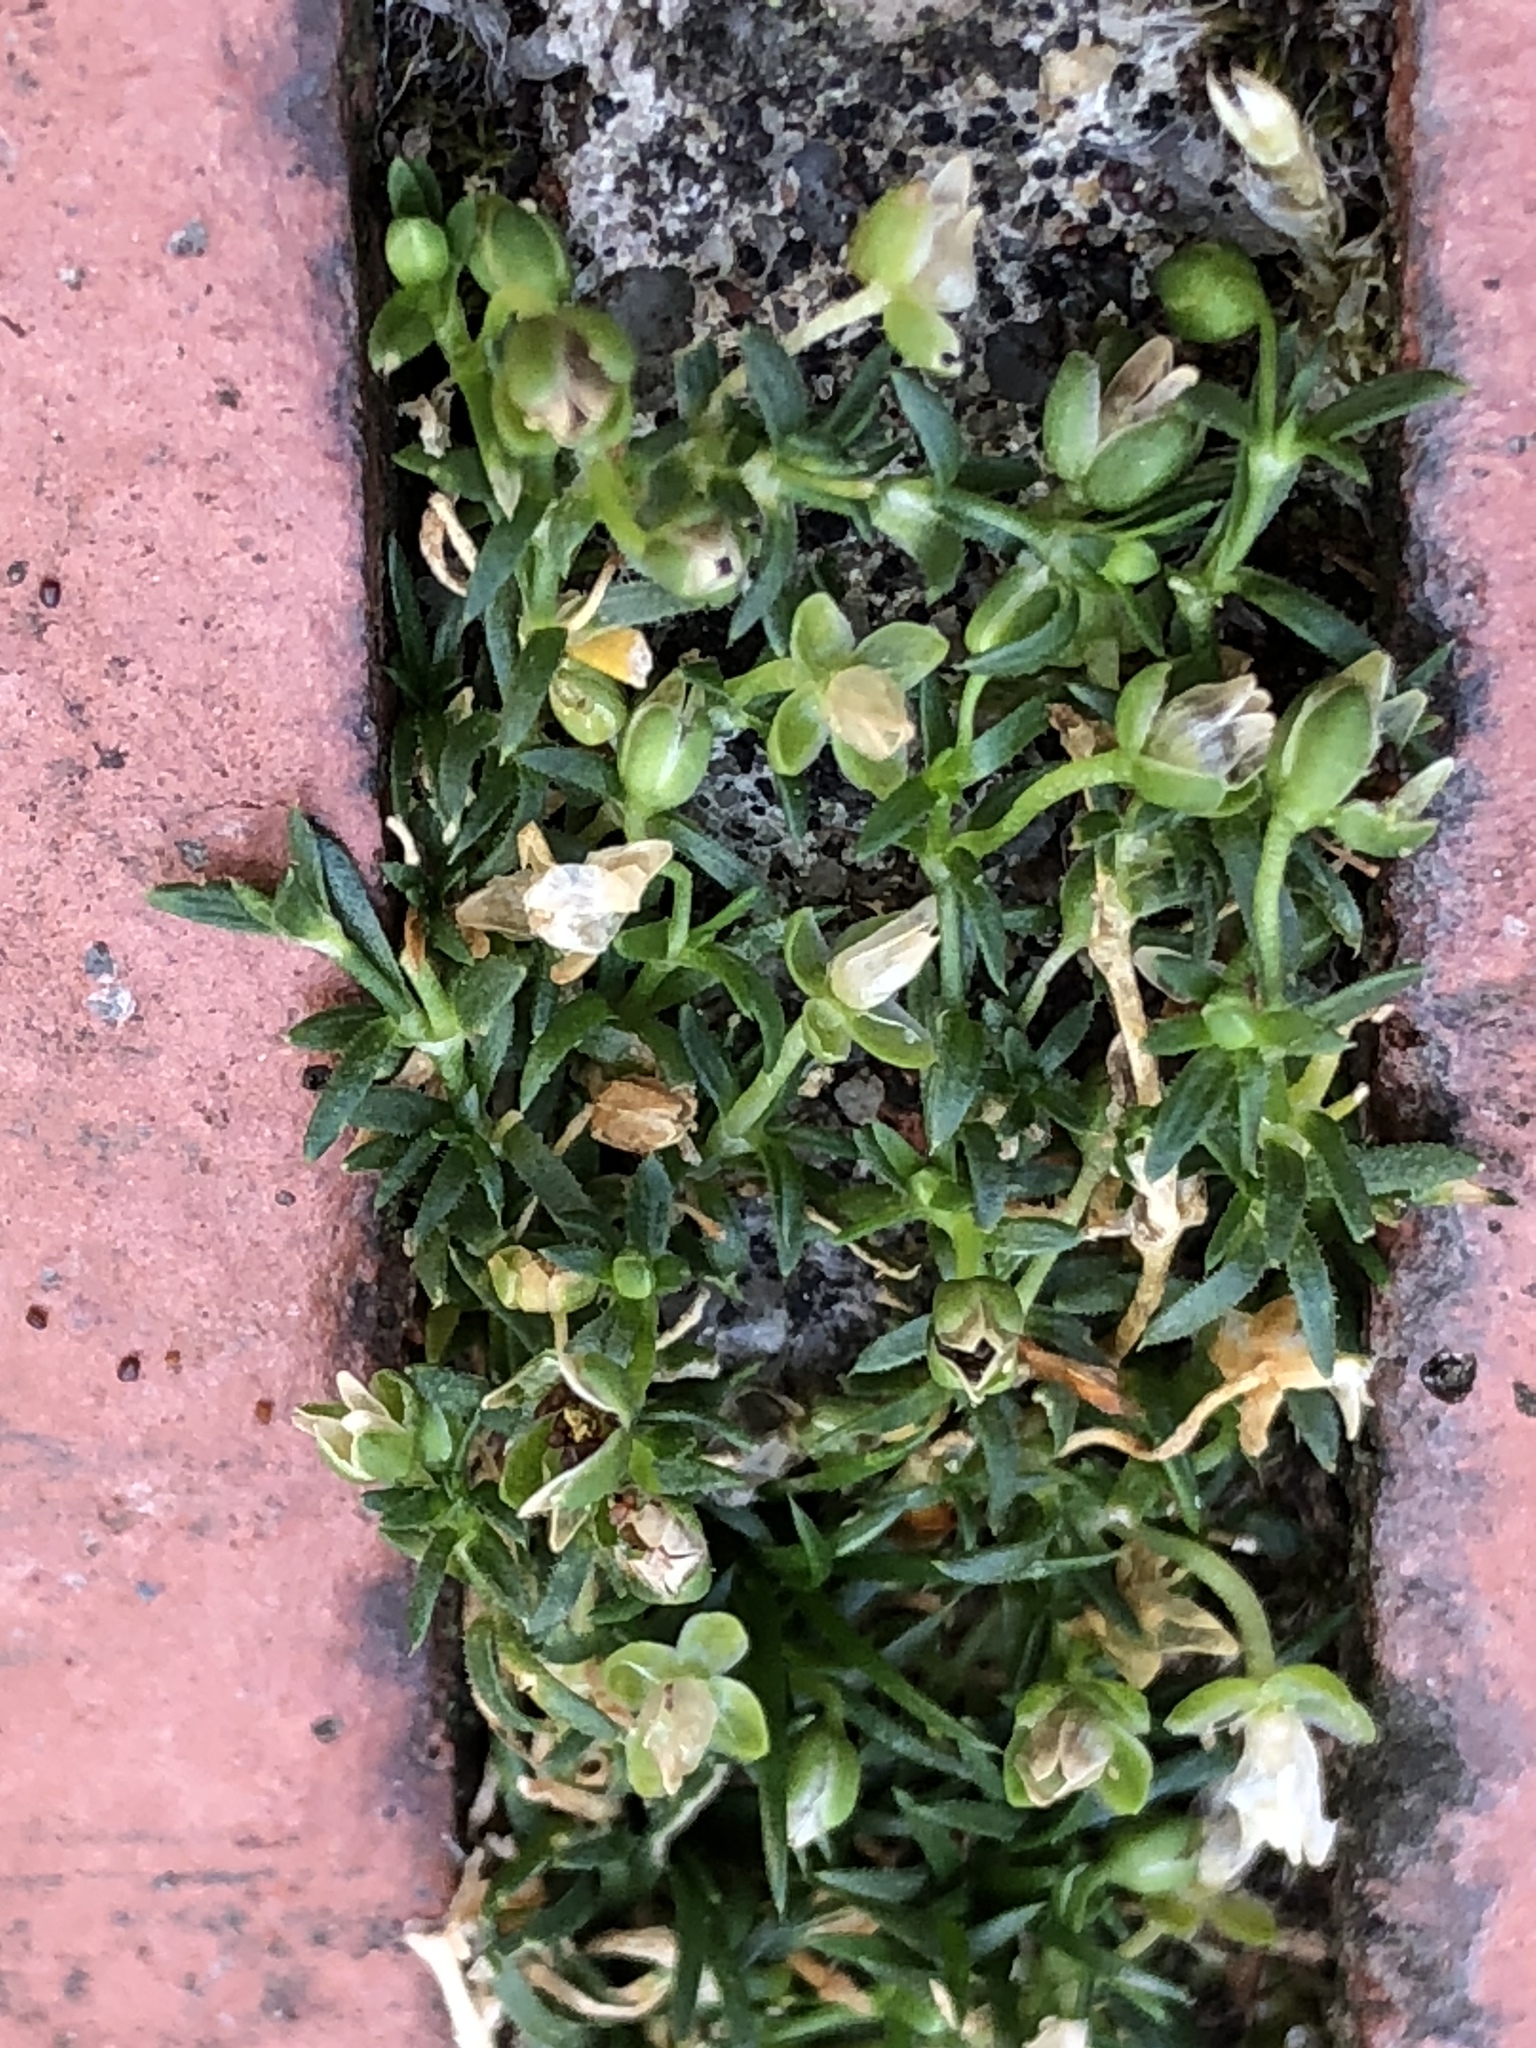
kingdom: Plantae
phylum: Tracheophyta
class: Magnoliopsida
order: Caryophyllales
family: Caryophyllaceae
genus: Sagina
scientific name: Sagina procumbens
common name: Procumbent pearlwort
